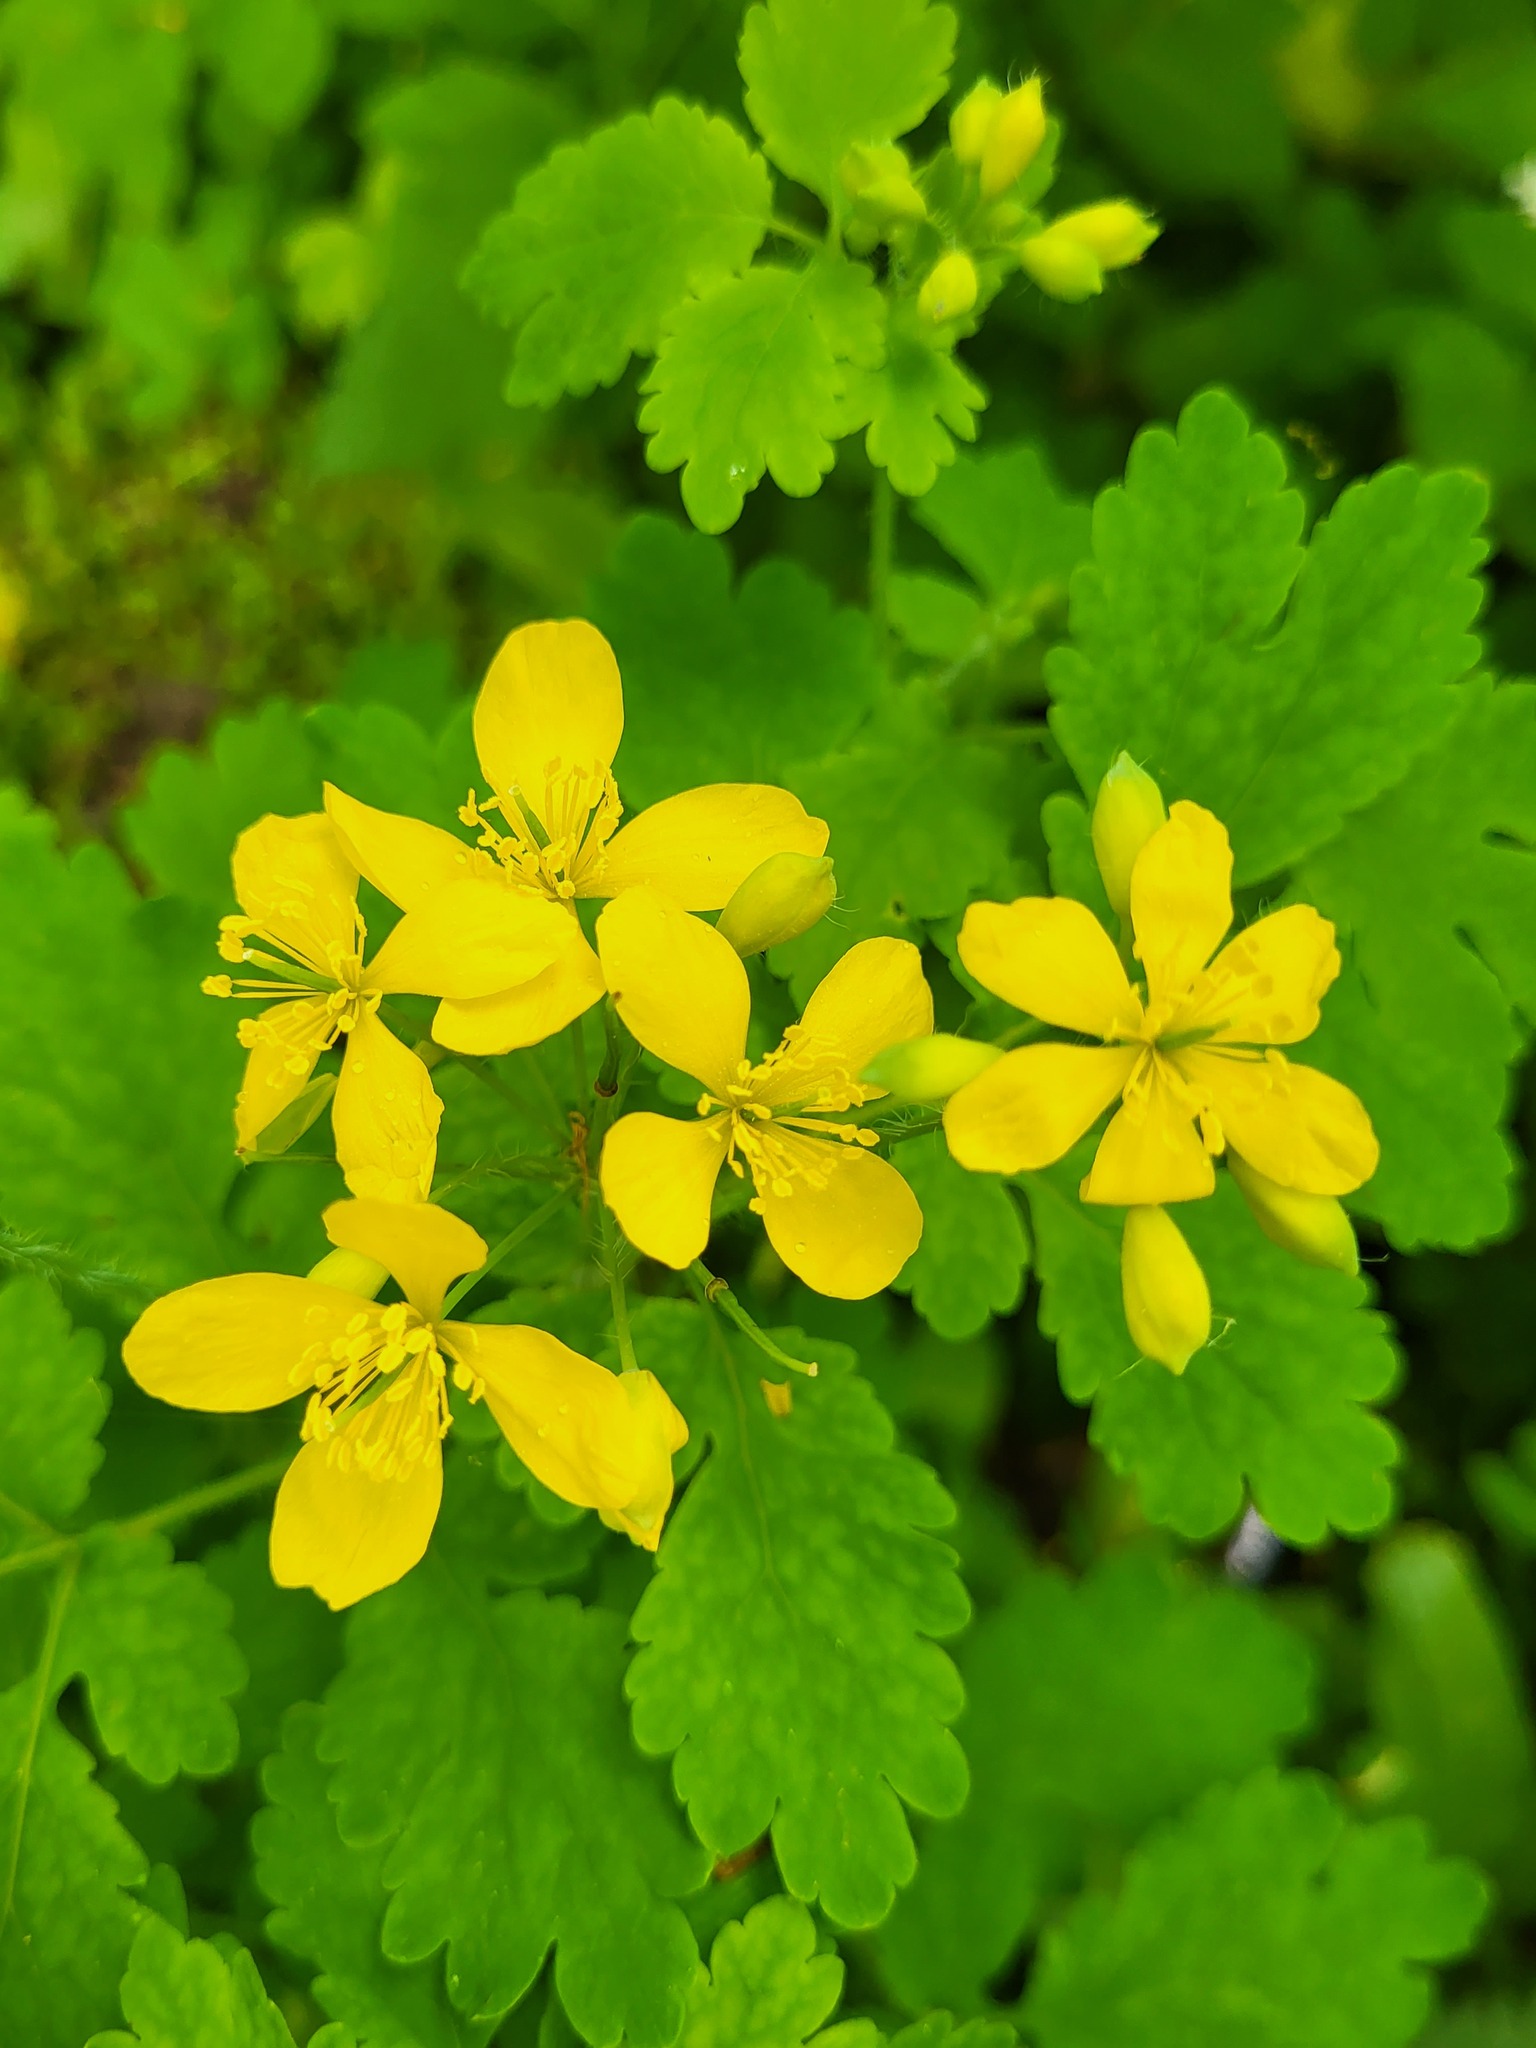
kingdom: Plantae
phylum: Tracheophyta
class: Magnoliopsida
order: Ranunculales
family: Papaveraceae
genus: Chelidonium
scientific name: Chelidonium majus
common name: Greater celandine
